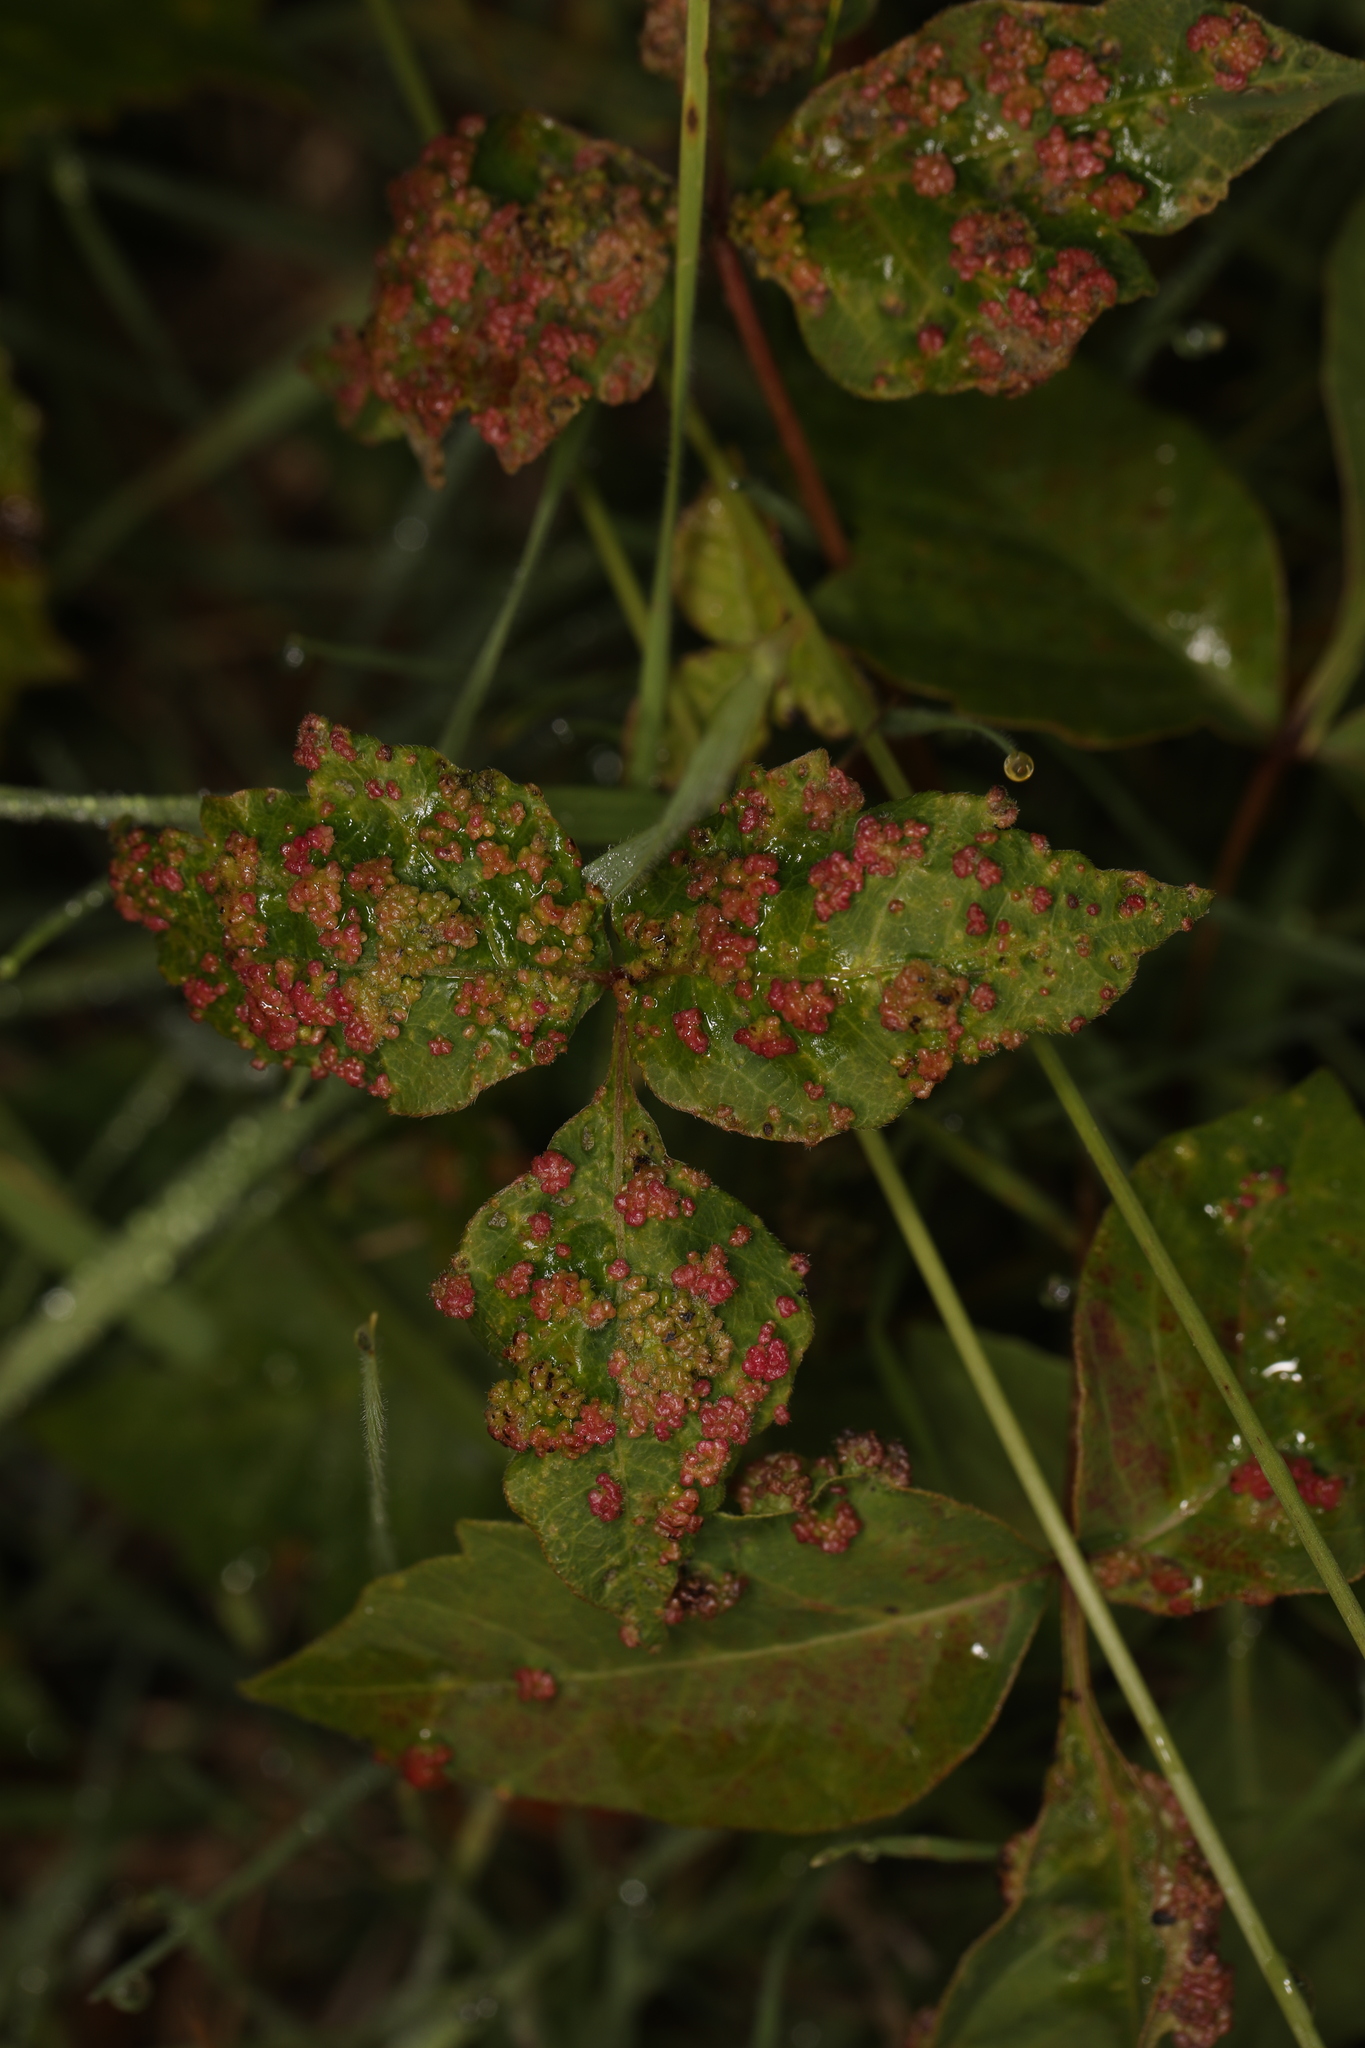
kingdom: Animalia
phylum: Arthropoda
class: Arachnida
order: Trombidiformes
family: Eriophyidae
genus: Aculops
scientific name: Aculops
